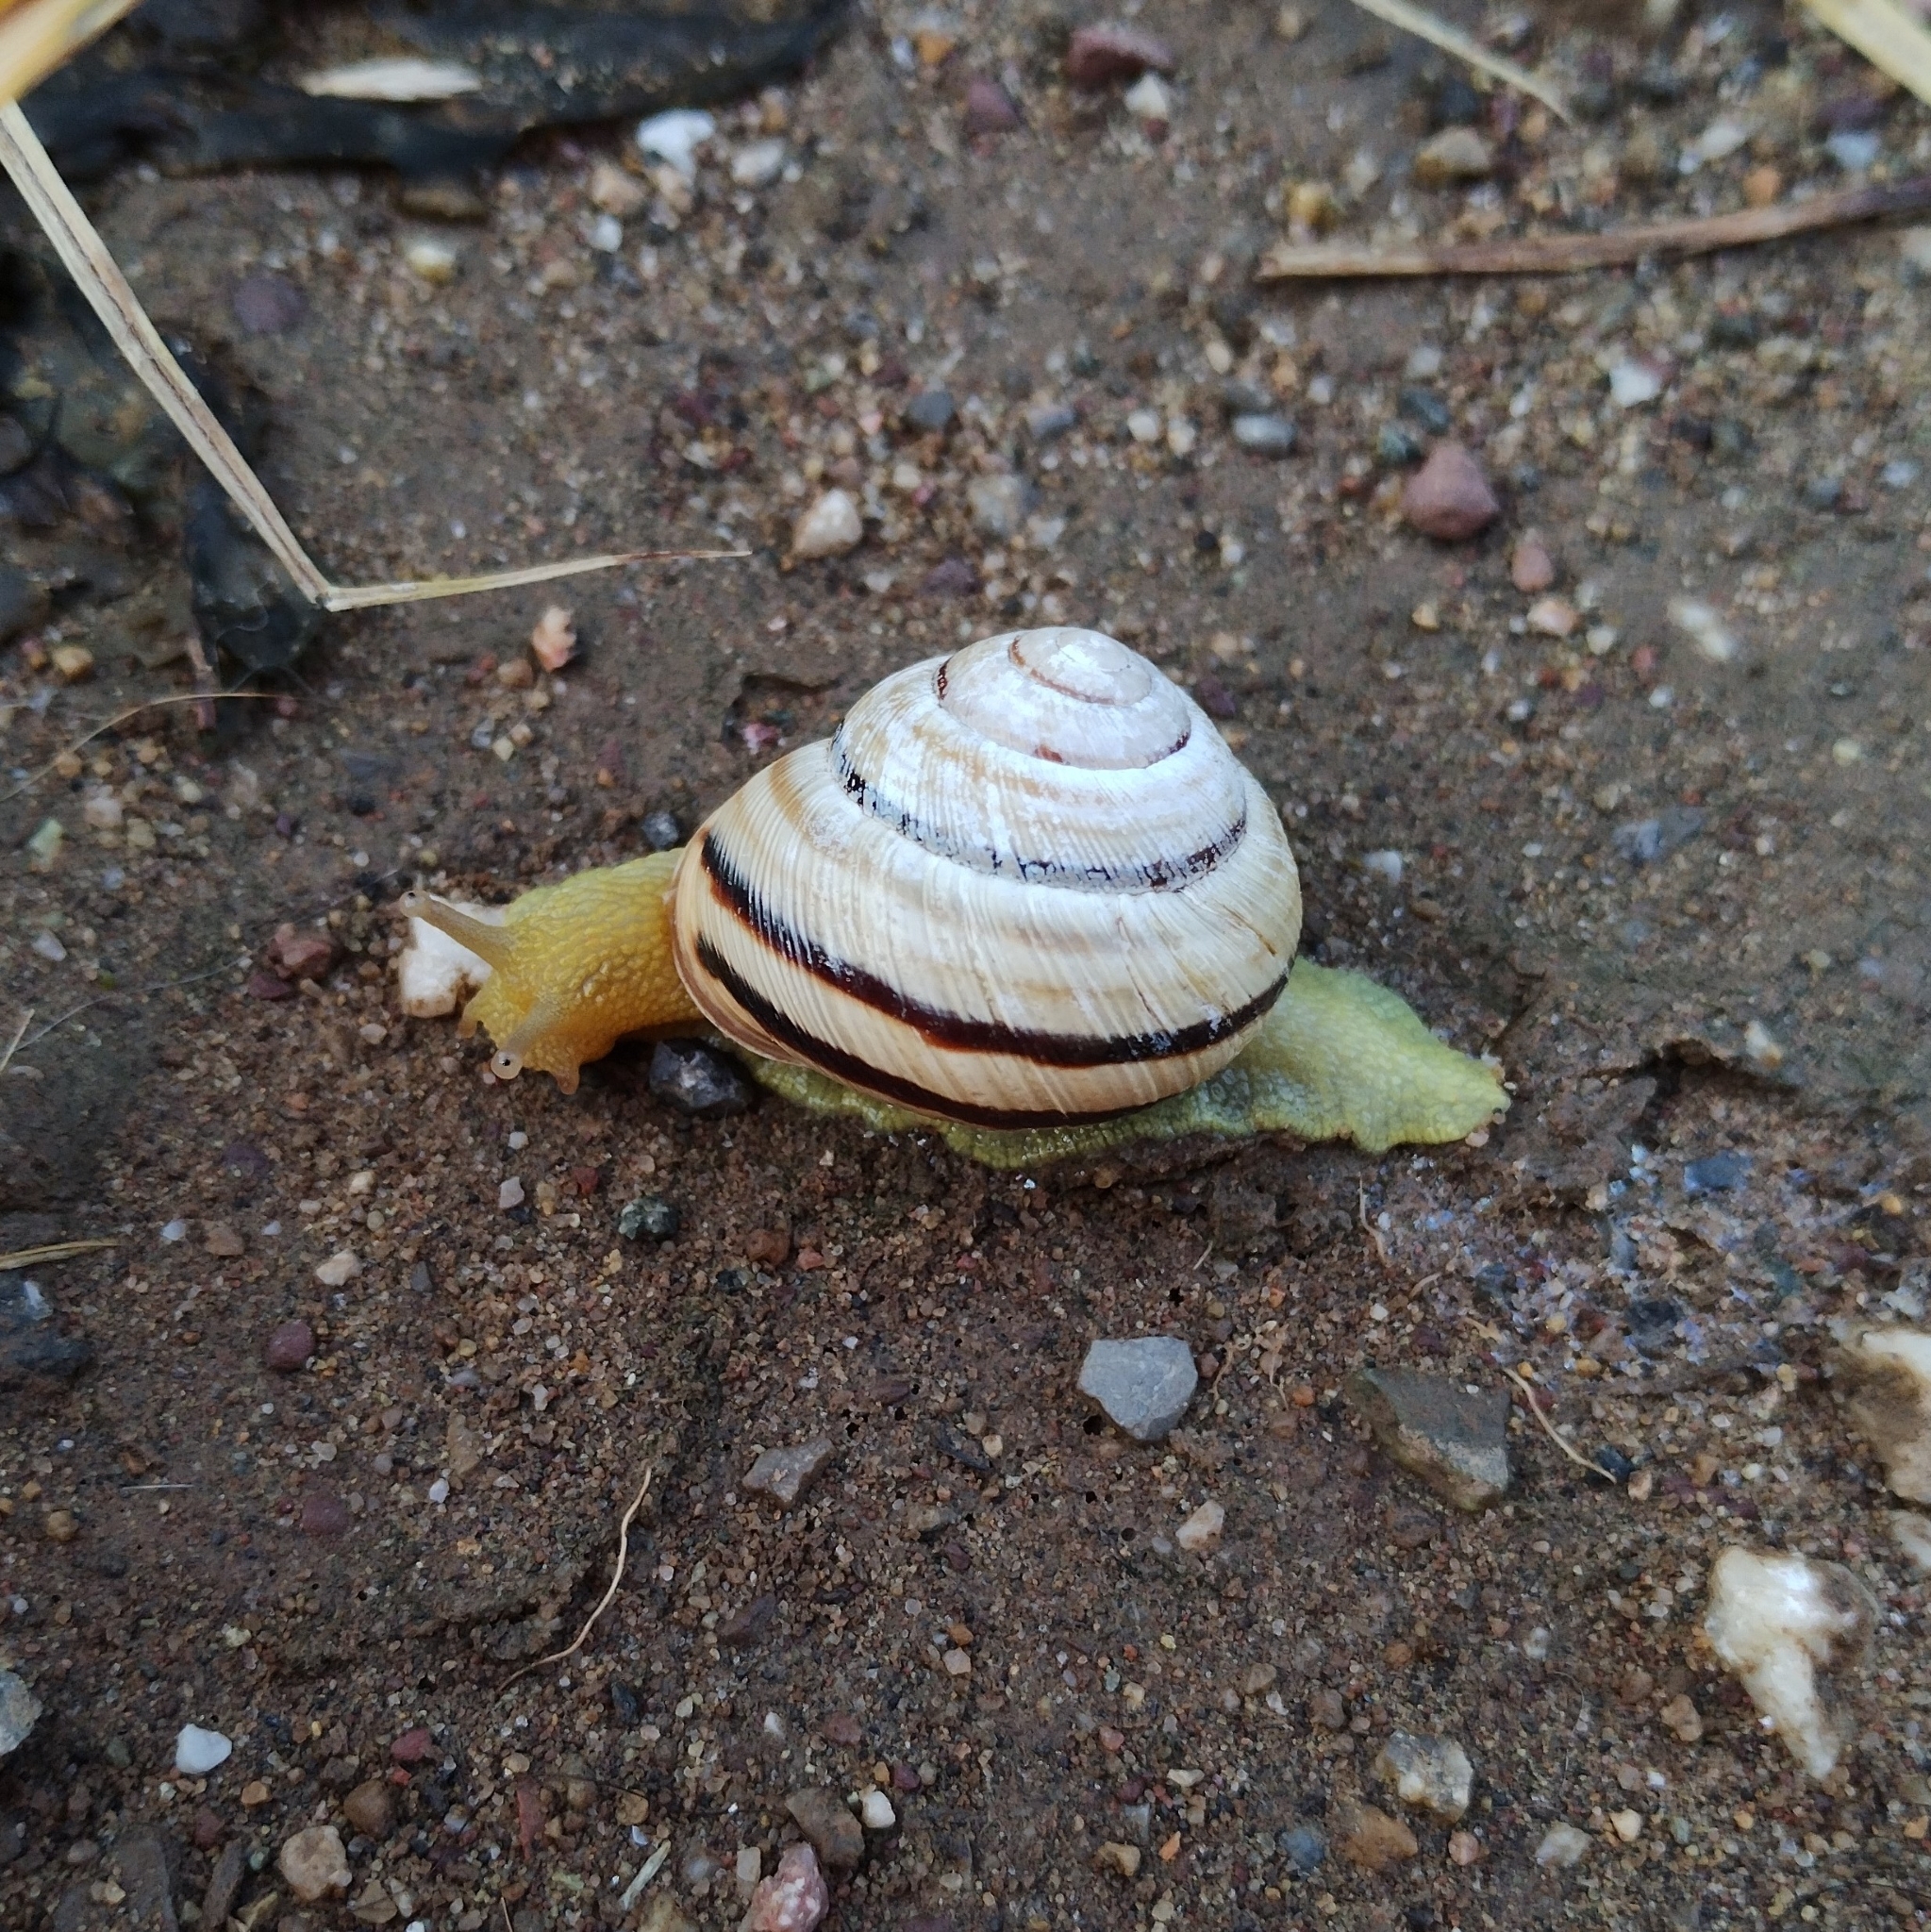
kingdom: Animalia
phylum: Mollusca
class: Gastropoda
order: Stylommatophora
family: Helicidae
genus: Caucasotachea
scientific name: Caucasotachea vindobonensis
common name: European helicid land snail
